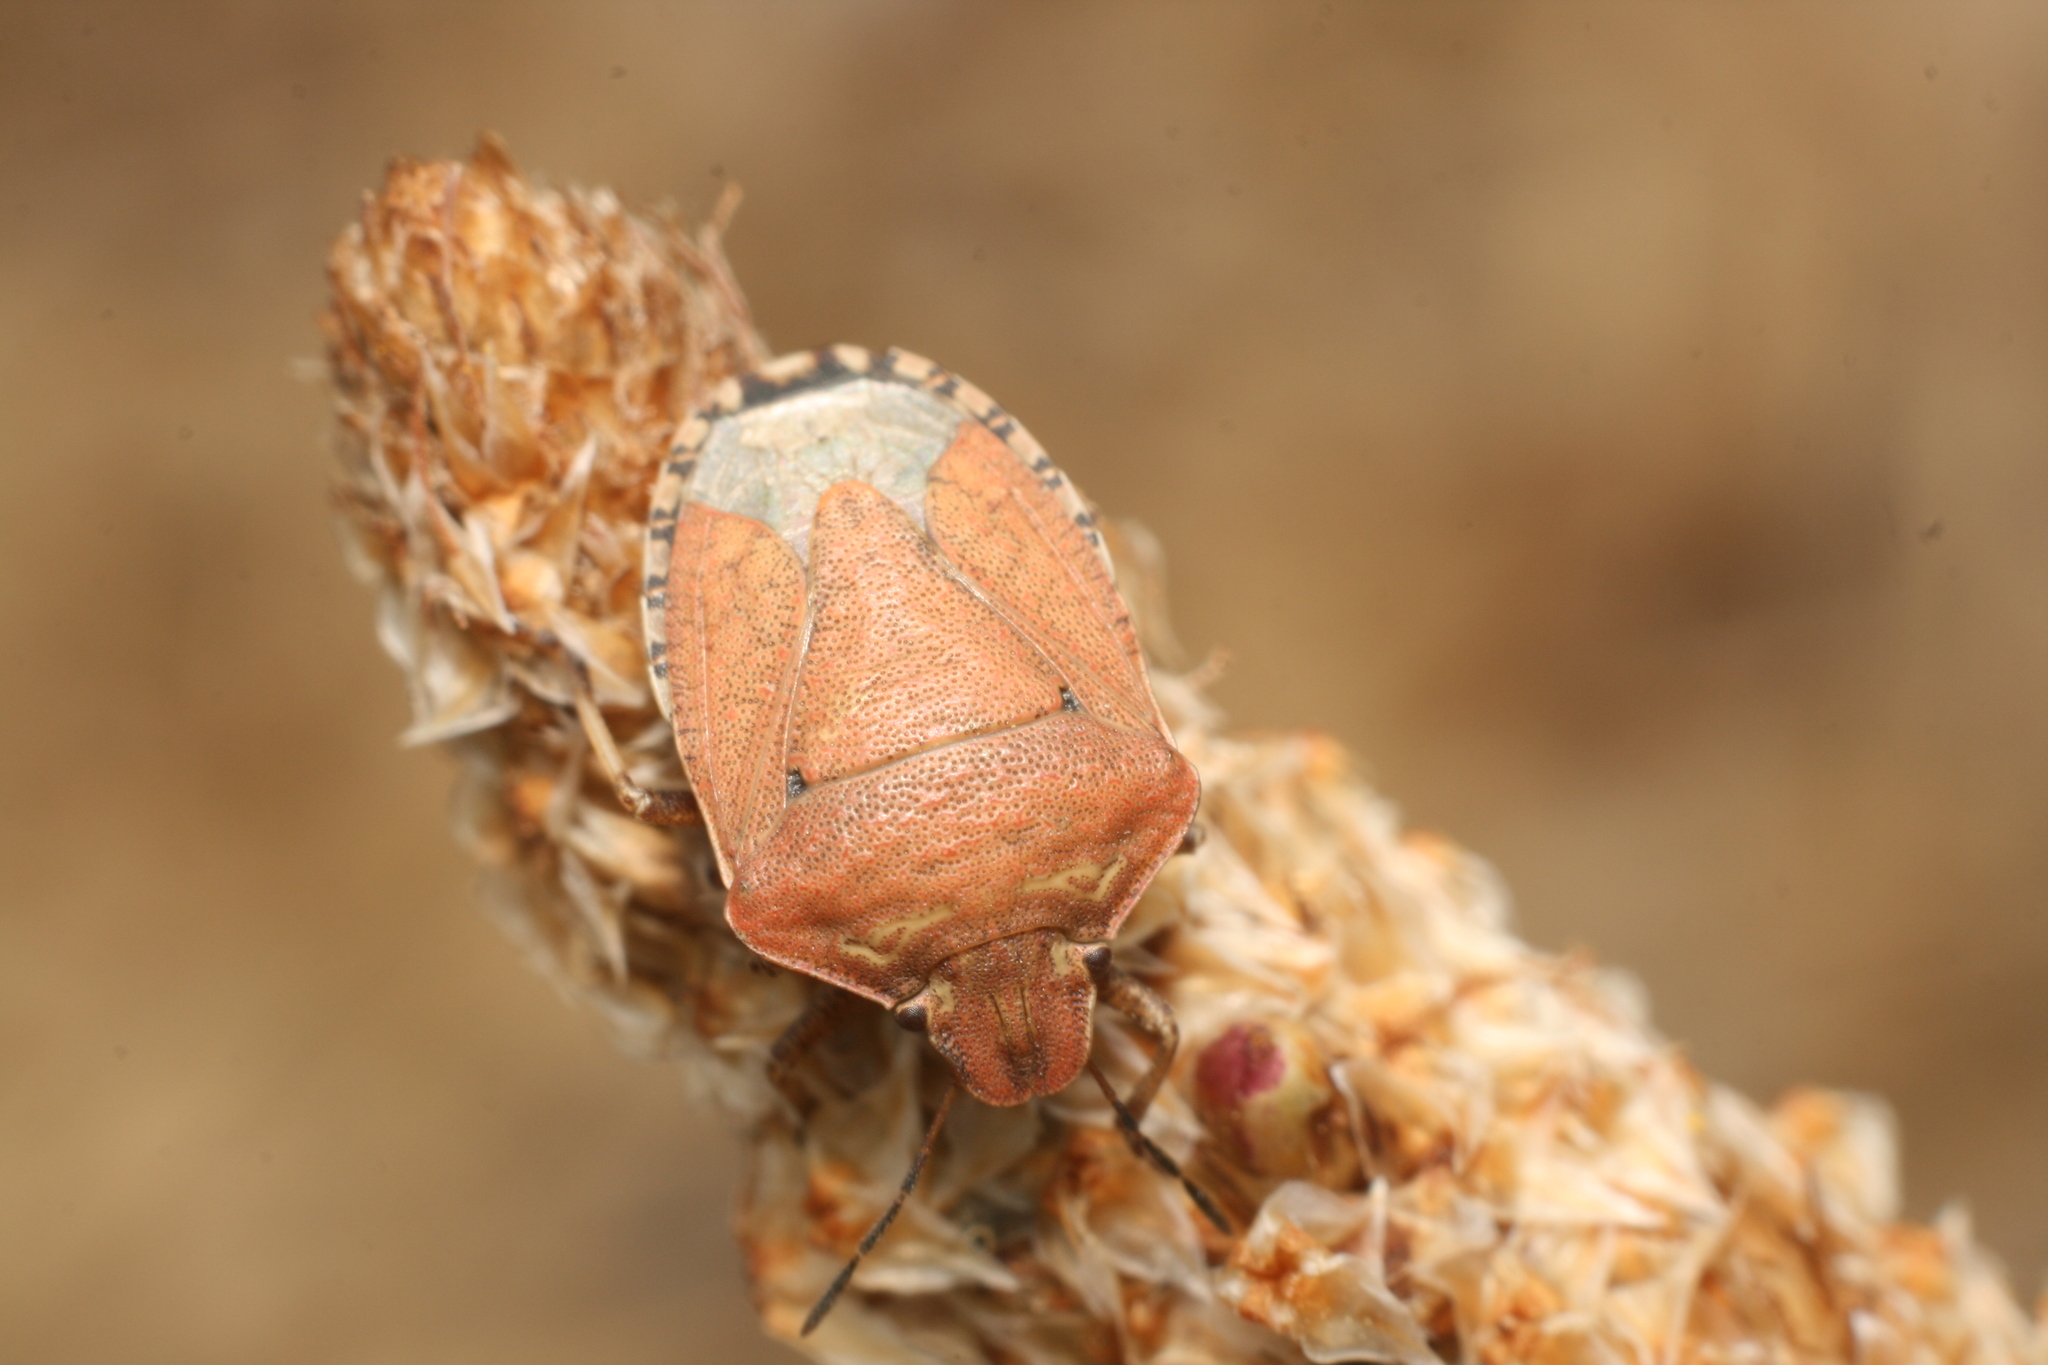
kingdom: Animalia
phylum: Arthropoda
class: Insecta
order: Hemiptera
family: Pentatomidae
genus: Dictyotus
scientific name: Dictyotus caenosus
